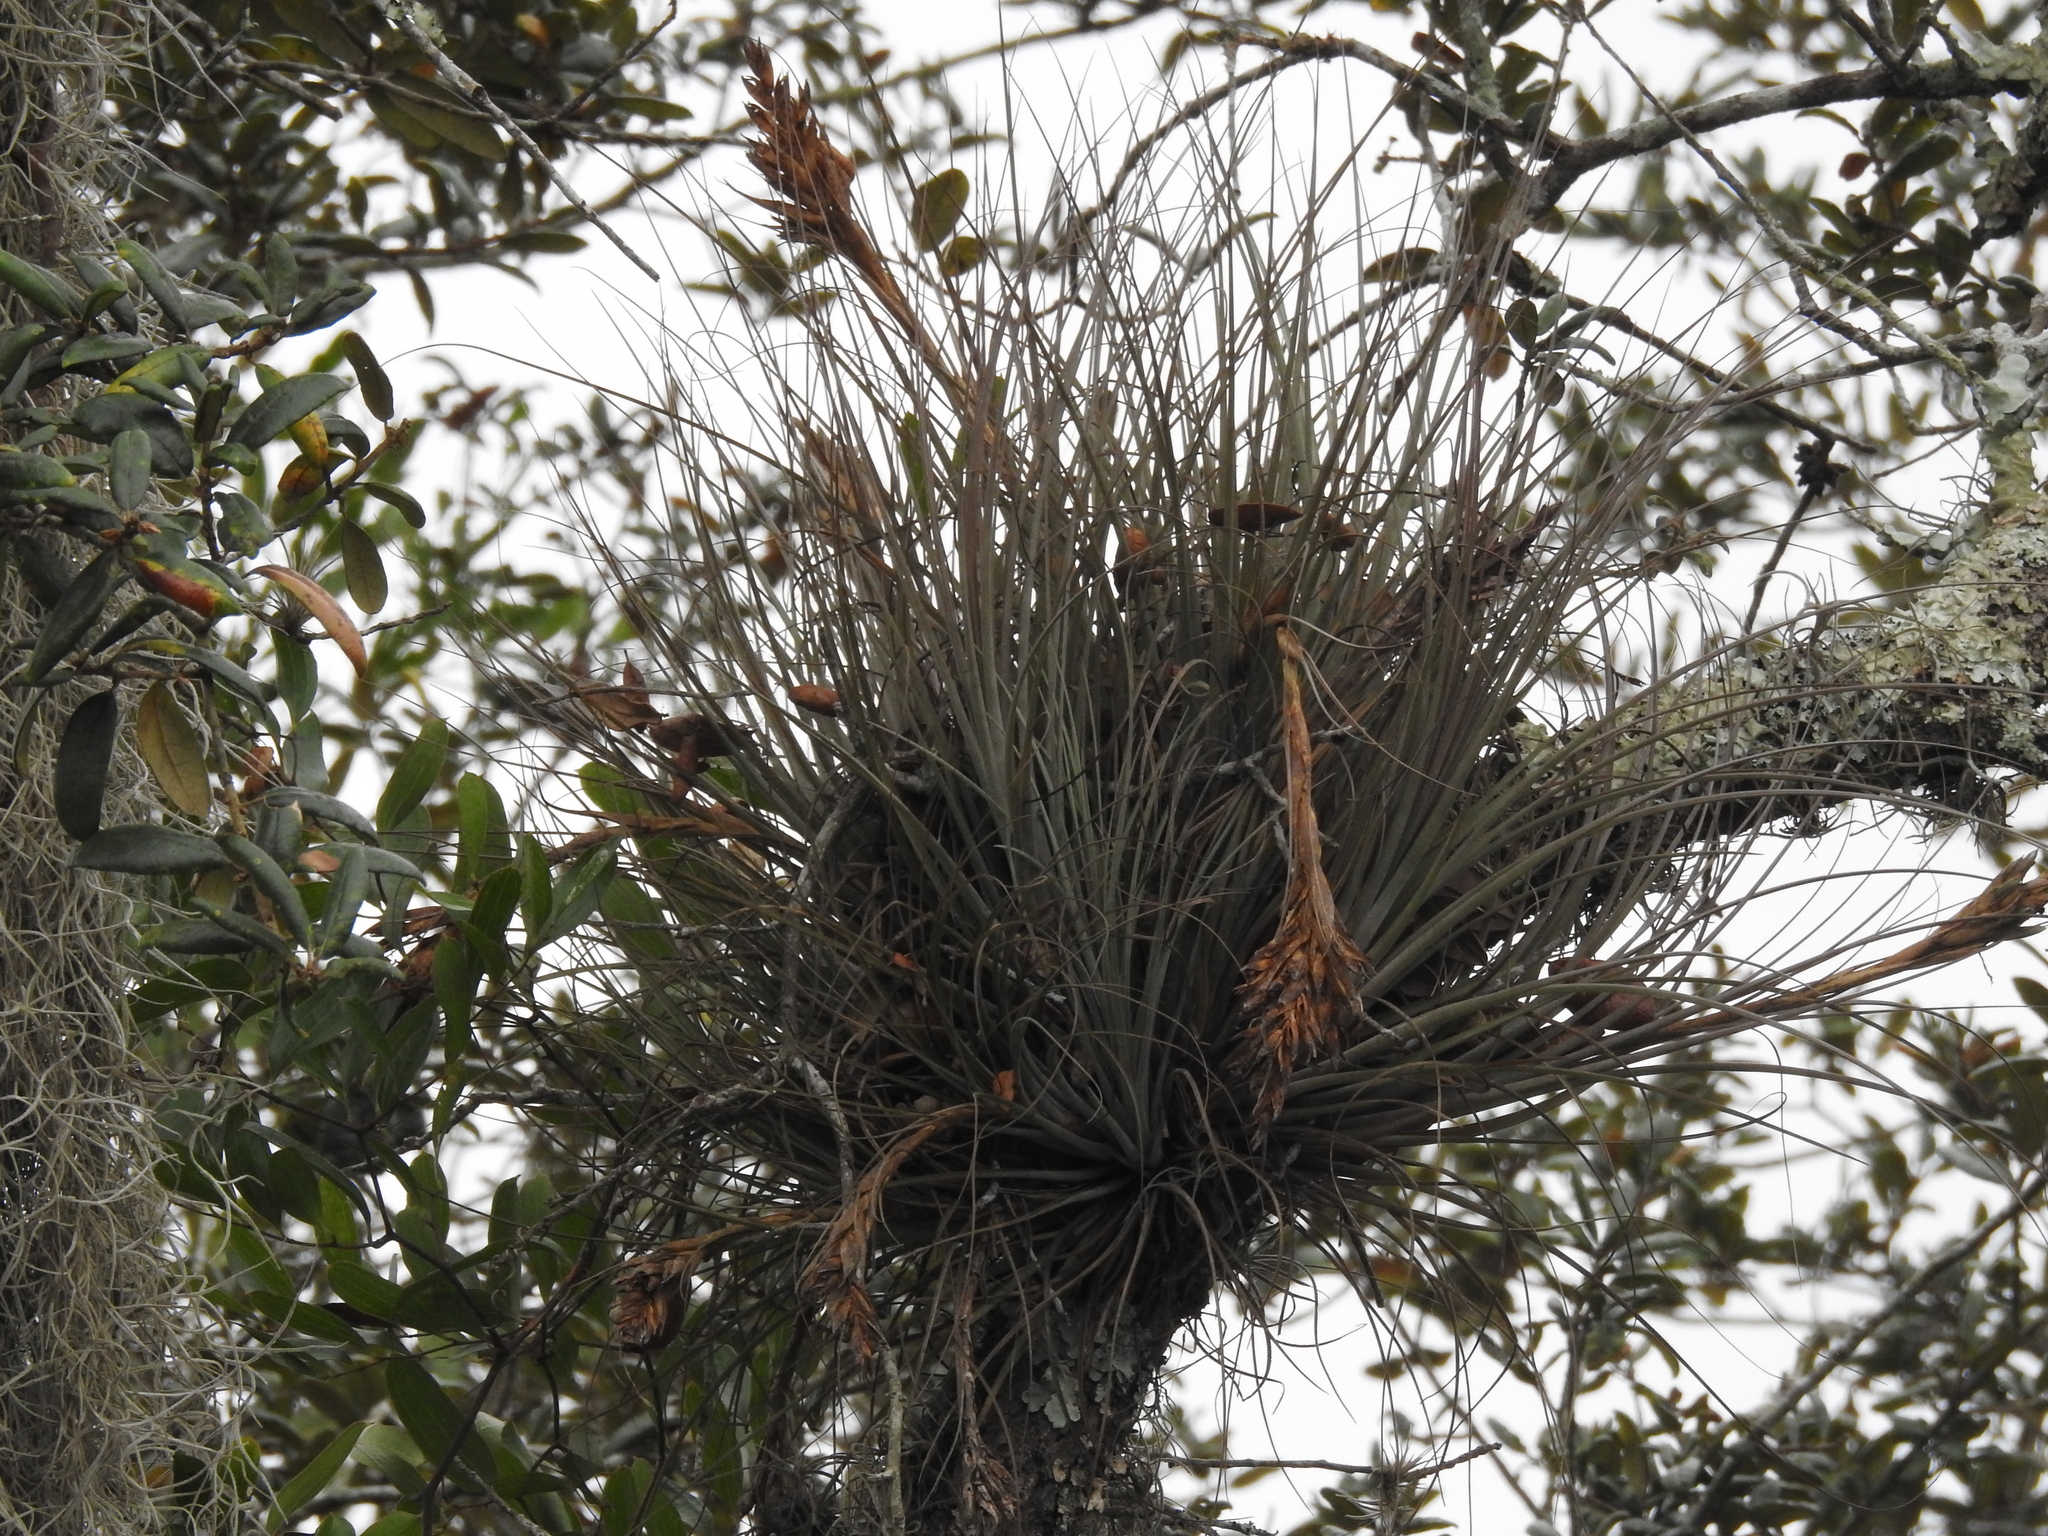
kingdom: Plantae
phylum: Tracheophyta
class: Liliopsida
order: Poales
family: Bromeliaceae
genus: Tillandsia
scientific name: Tillandsia floridana
